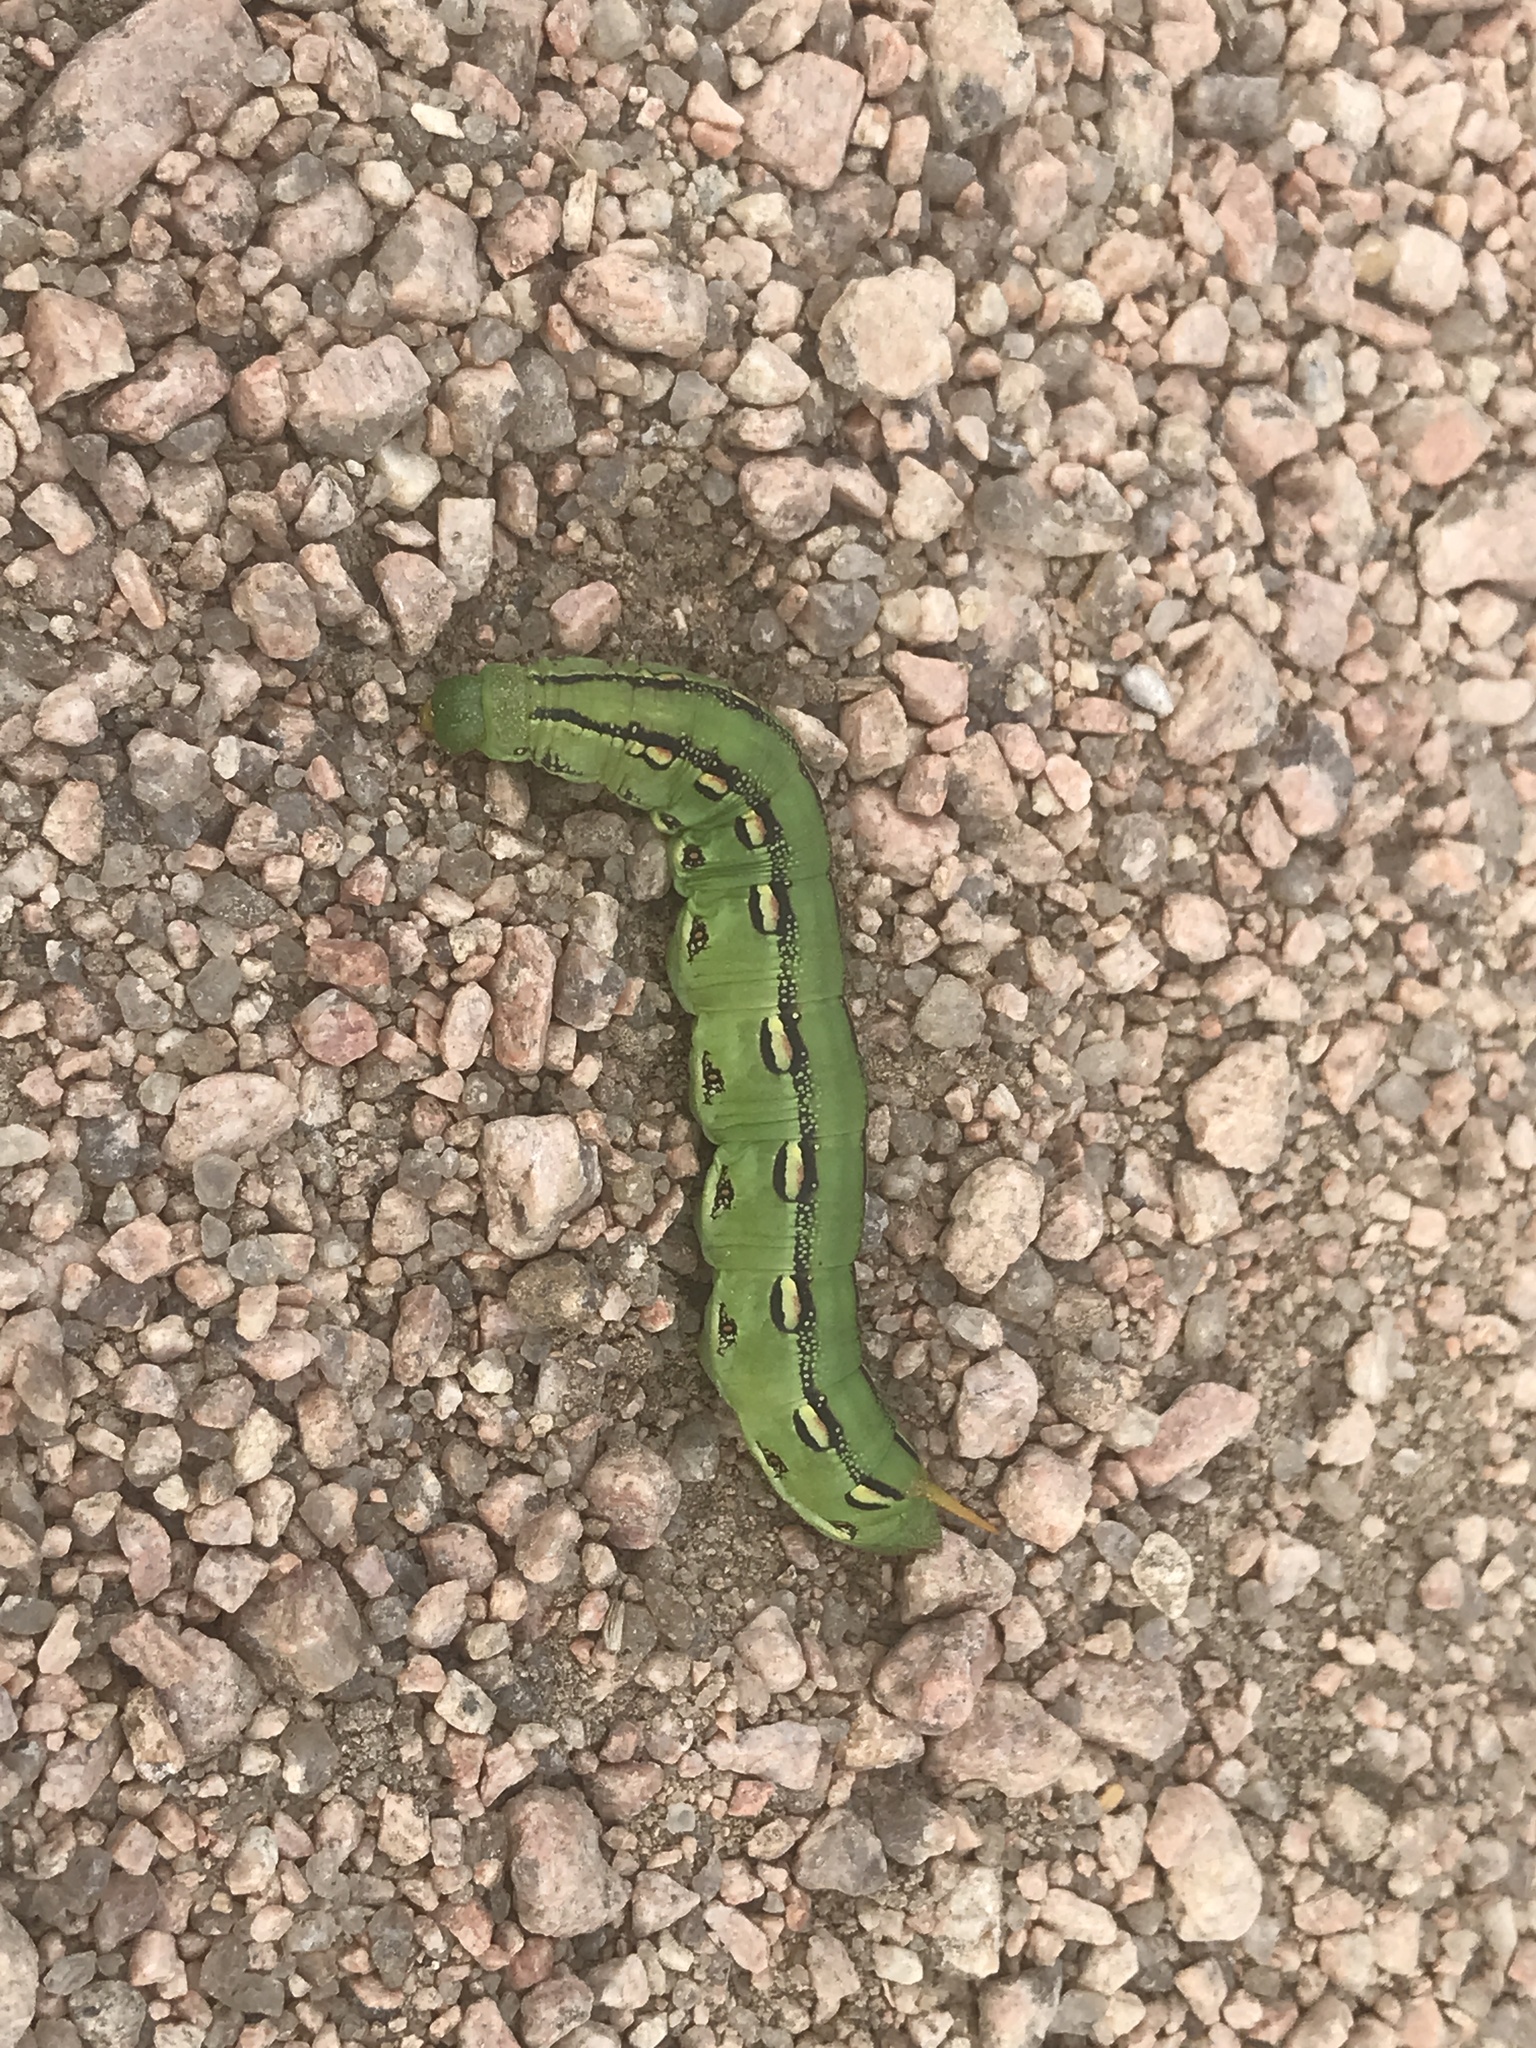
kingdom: Animalia
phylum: Arthropoda
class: Insecta
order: Lepidoptera
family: Sphingidae
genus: Hyles
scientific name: Hyles lineata
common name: White-lined sphinx
